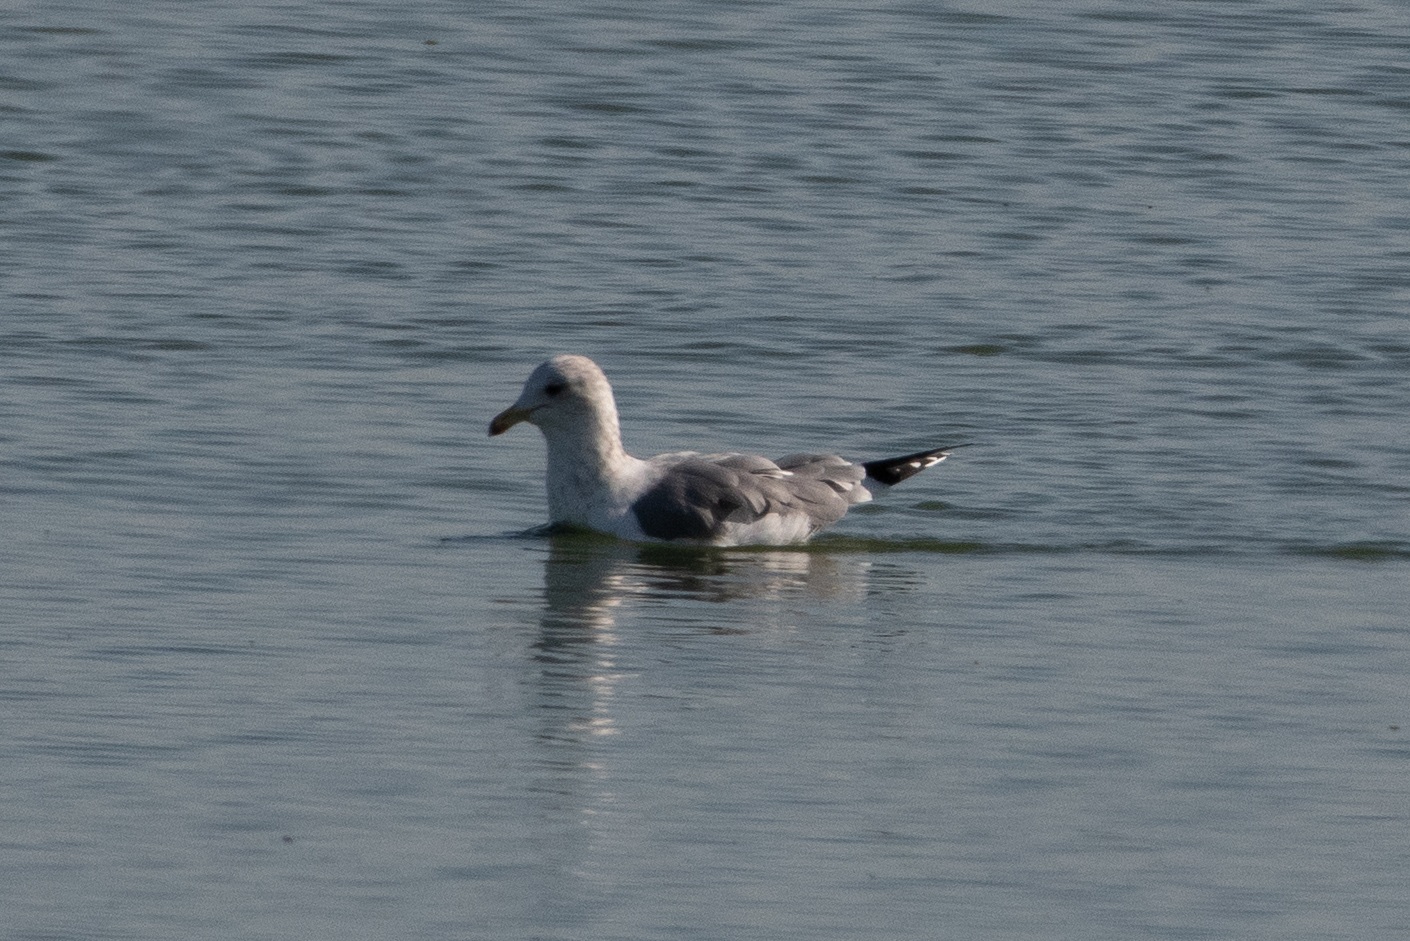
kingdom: Animalia
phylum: Chordata
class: Aves
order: Charadriiformes
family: Laridae
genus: Larus
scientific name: Larus californicus
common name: California gull
